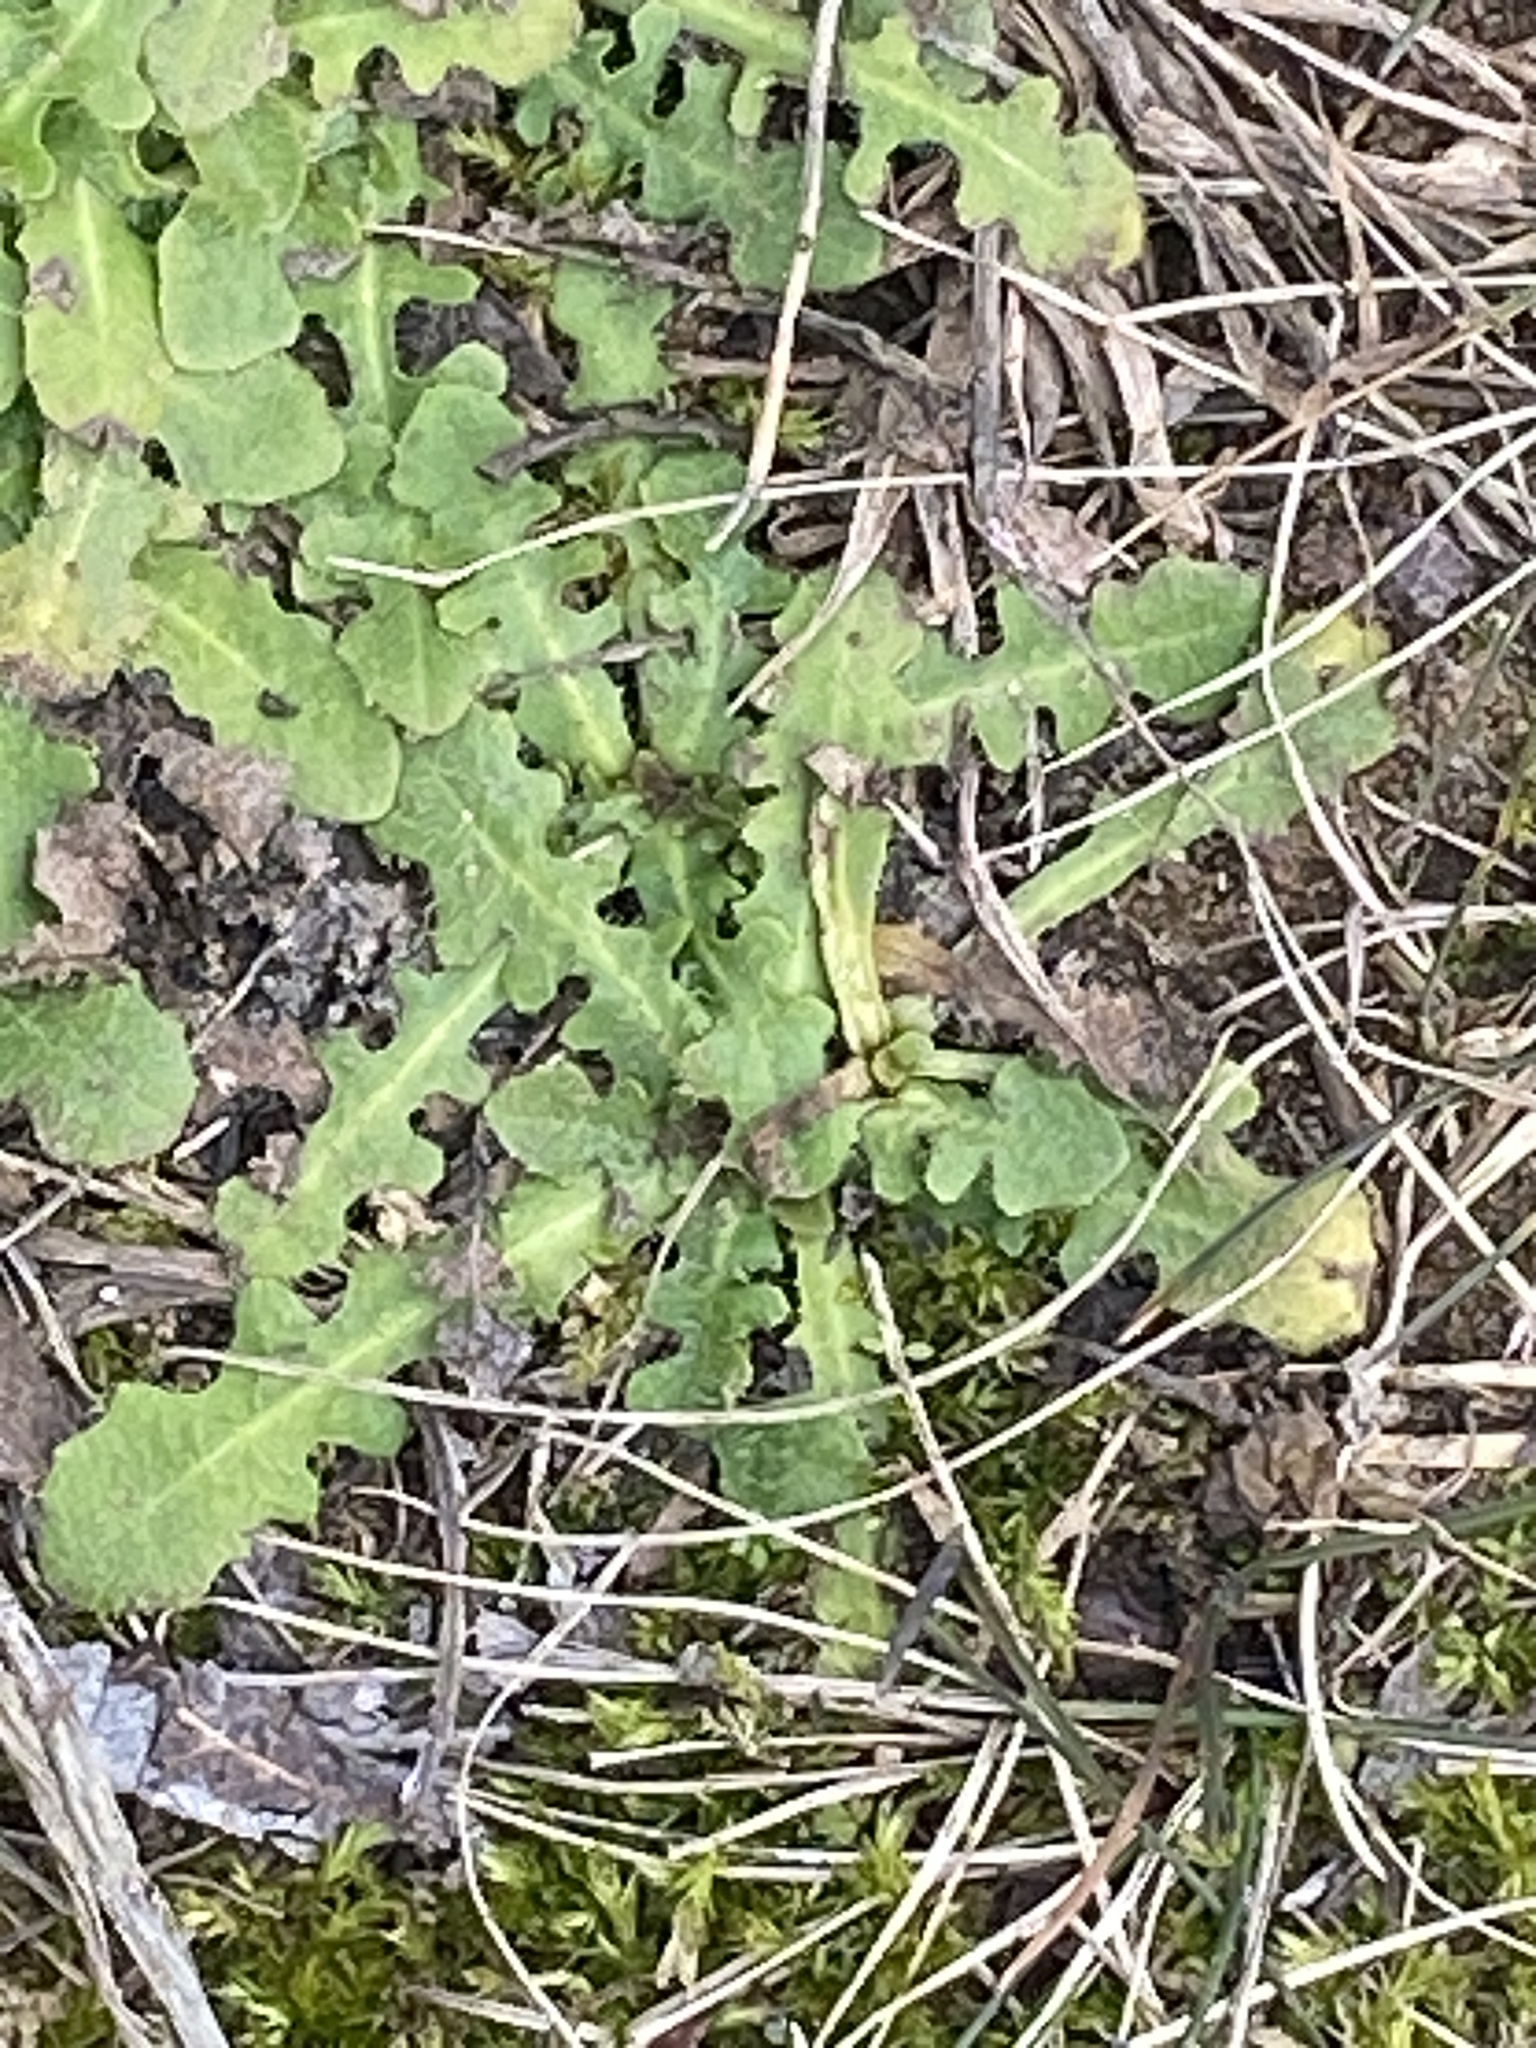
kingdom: Plantae
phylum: Tracheophyta
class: Magnoliopsida
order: Asterales
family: Asteraceae
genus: Hypochaeris
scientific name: Hypochaeris radicata
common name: Flatweed
